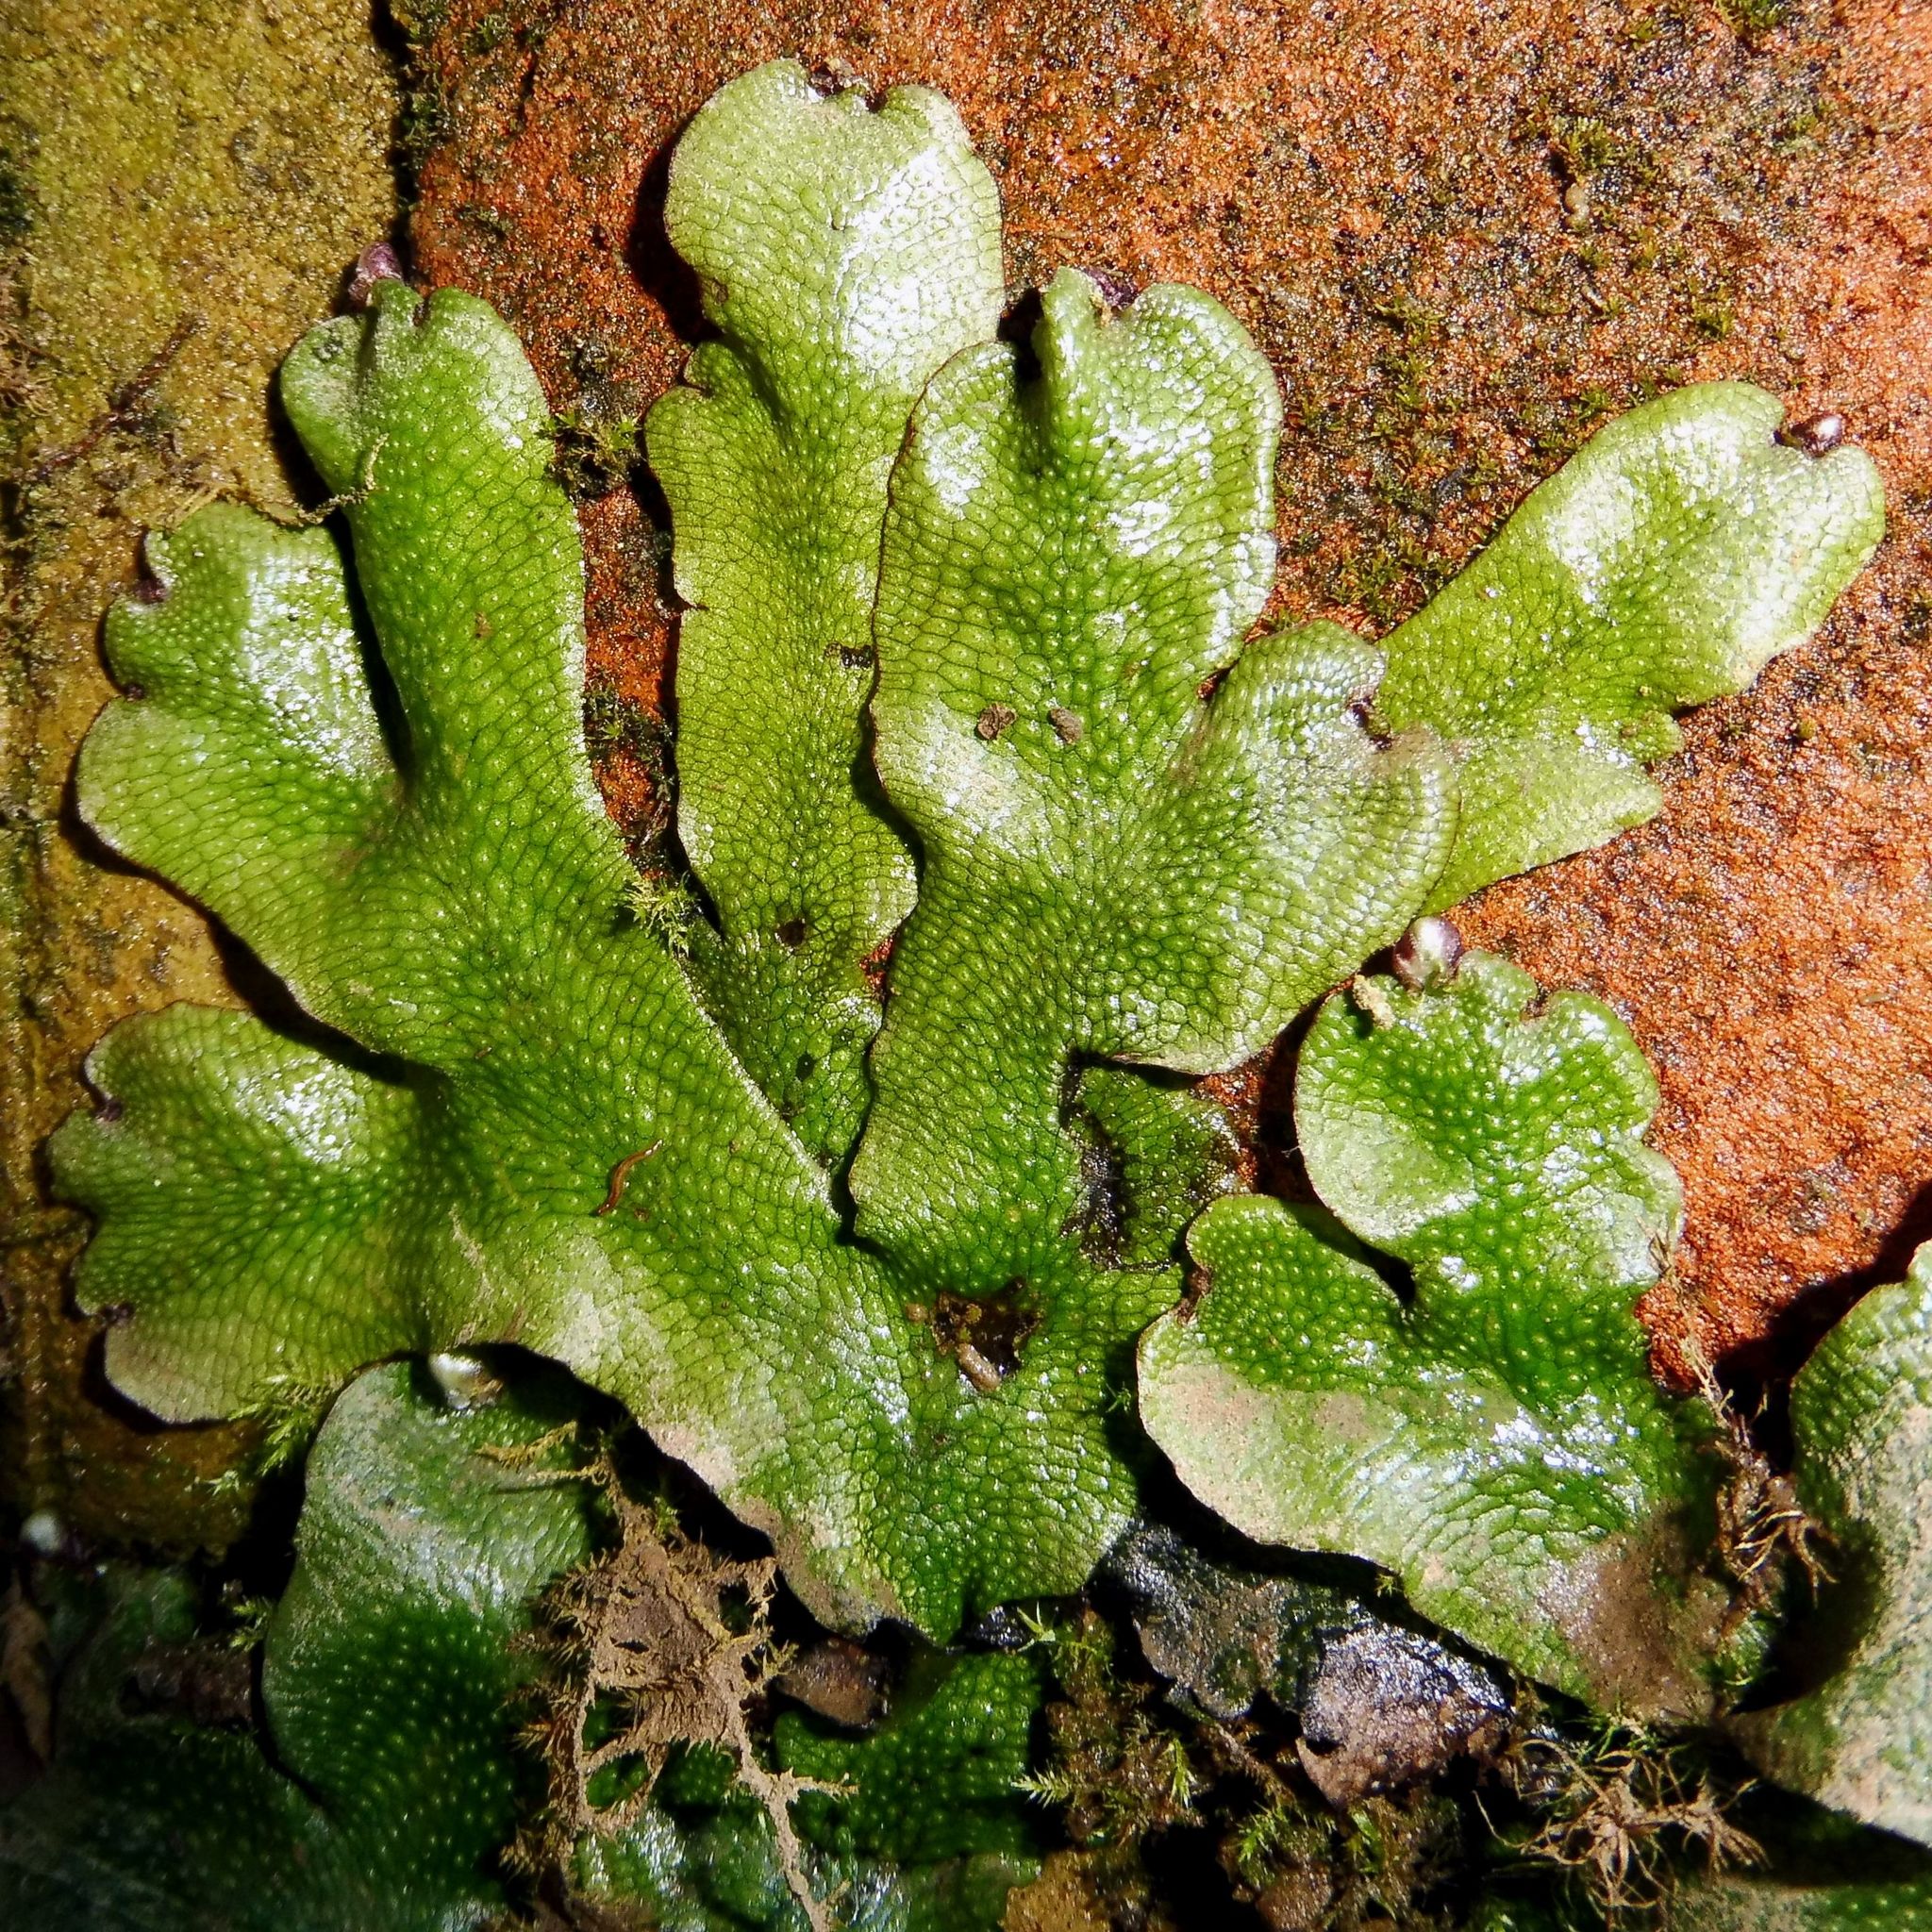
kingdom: Plantae
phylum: Marchantiophyta
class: Marchantiopsida
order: Marchantiales
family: Conocephalaceae
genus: Conocephalum
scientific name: Conocephalum conicum
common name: Great scented liverwort
